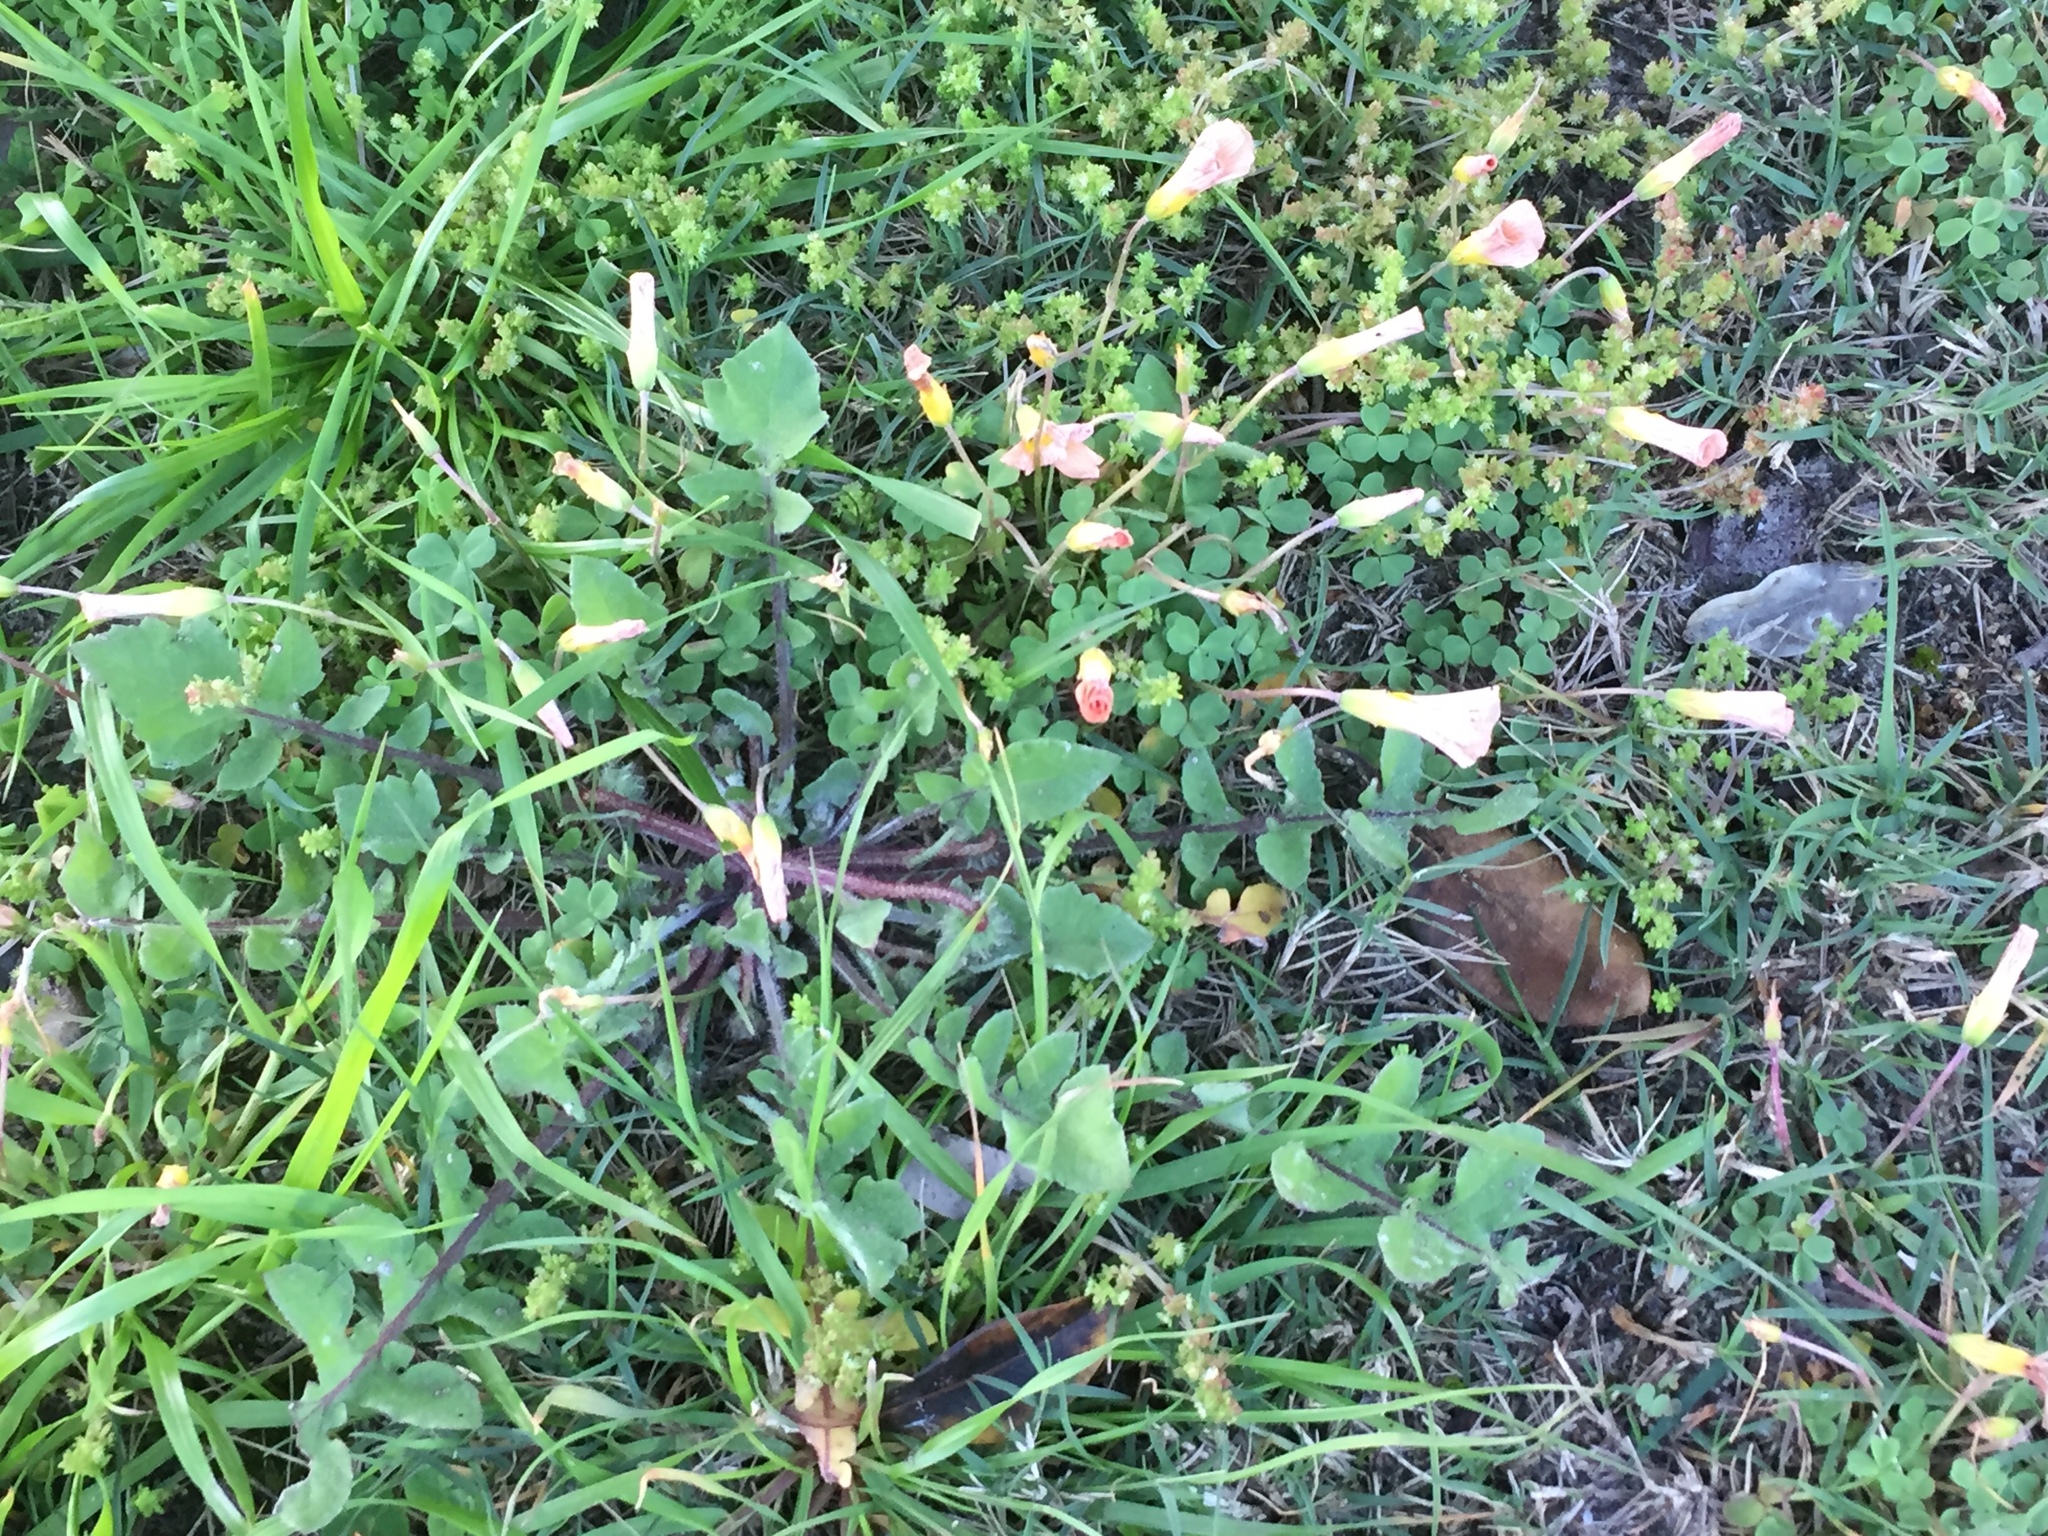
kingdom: Plantae
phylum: Tracheophyta
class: Magnoliopsida
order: Oxalidales
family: Oxalidaceae
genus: Oxalis
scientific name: Oxalis obtusa
